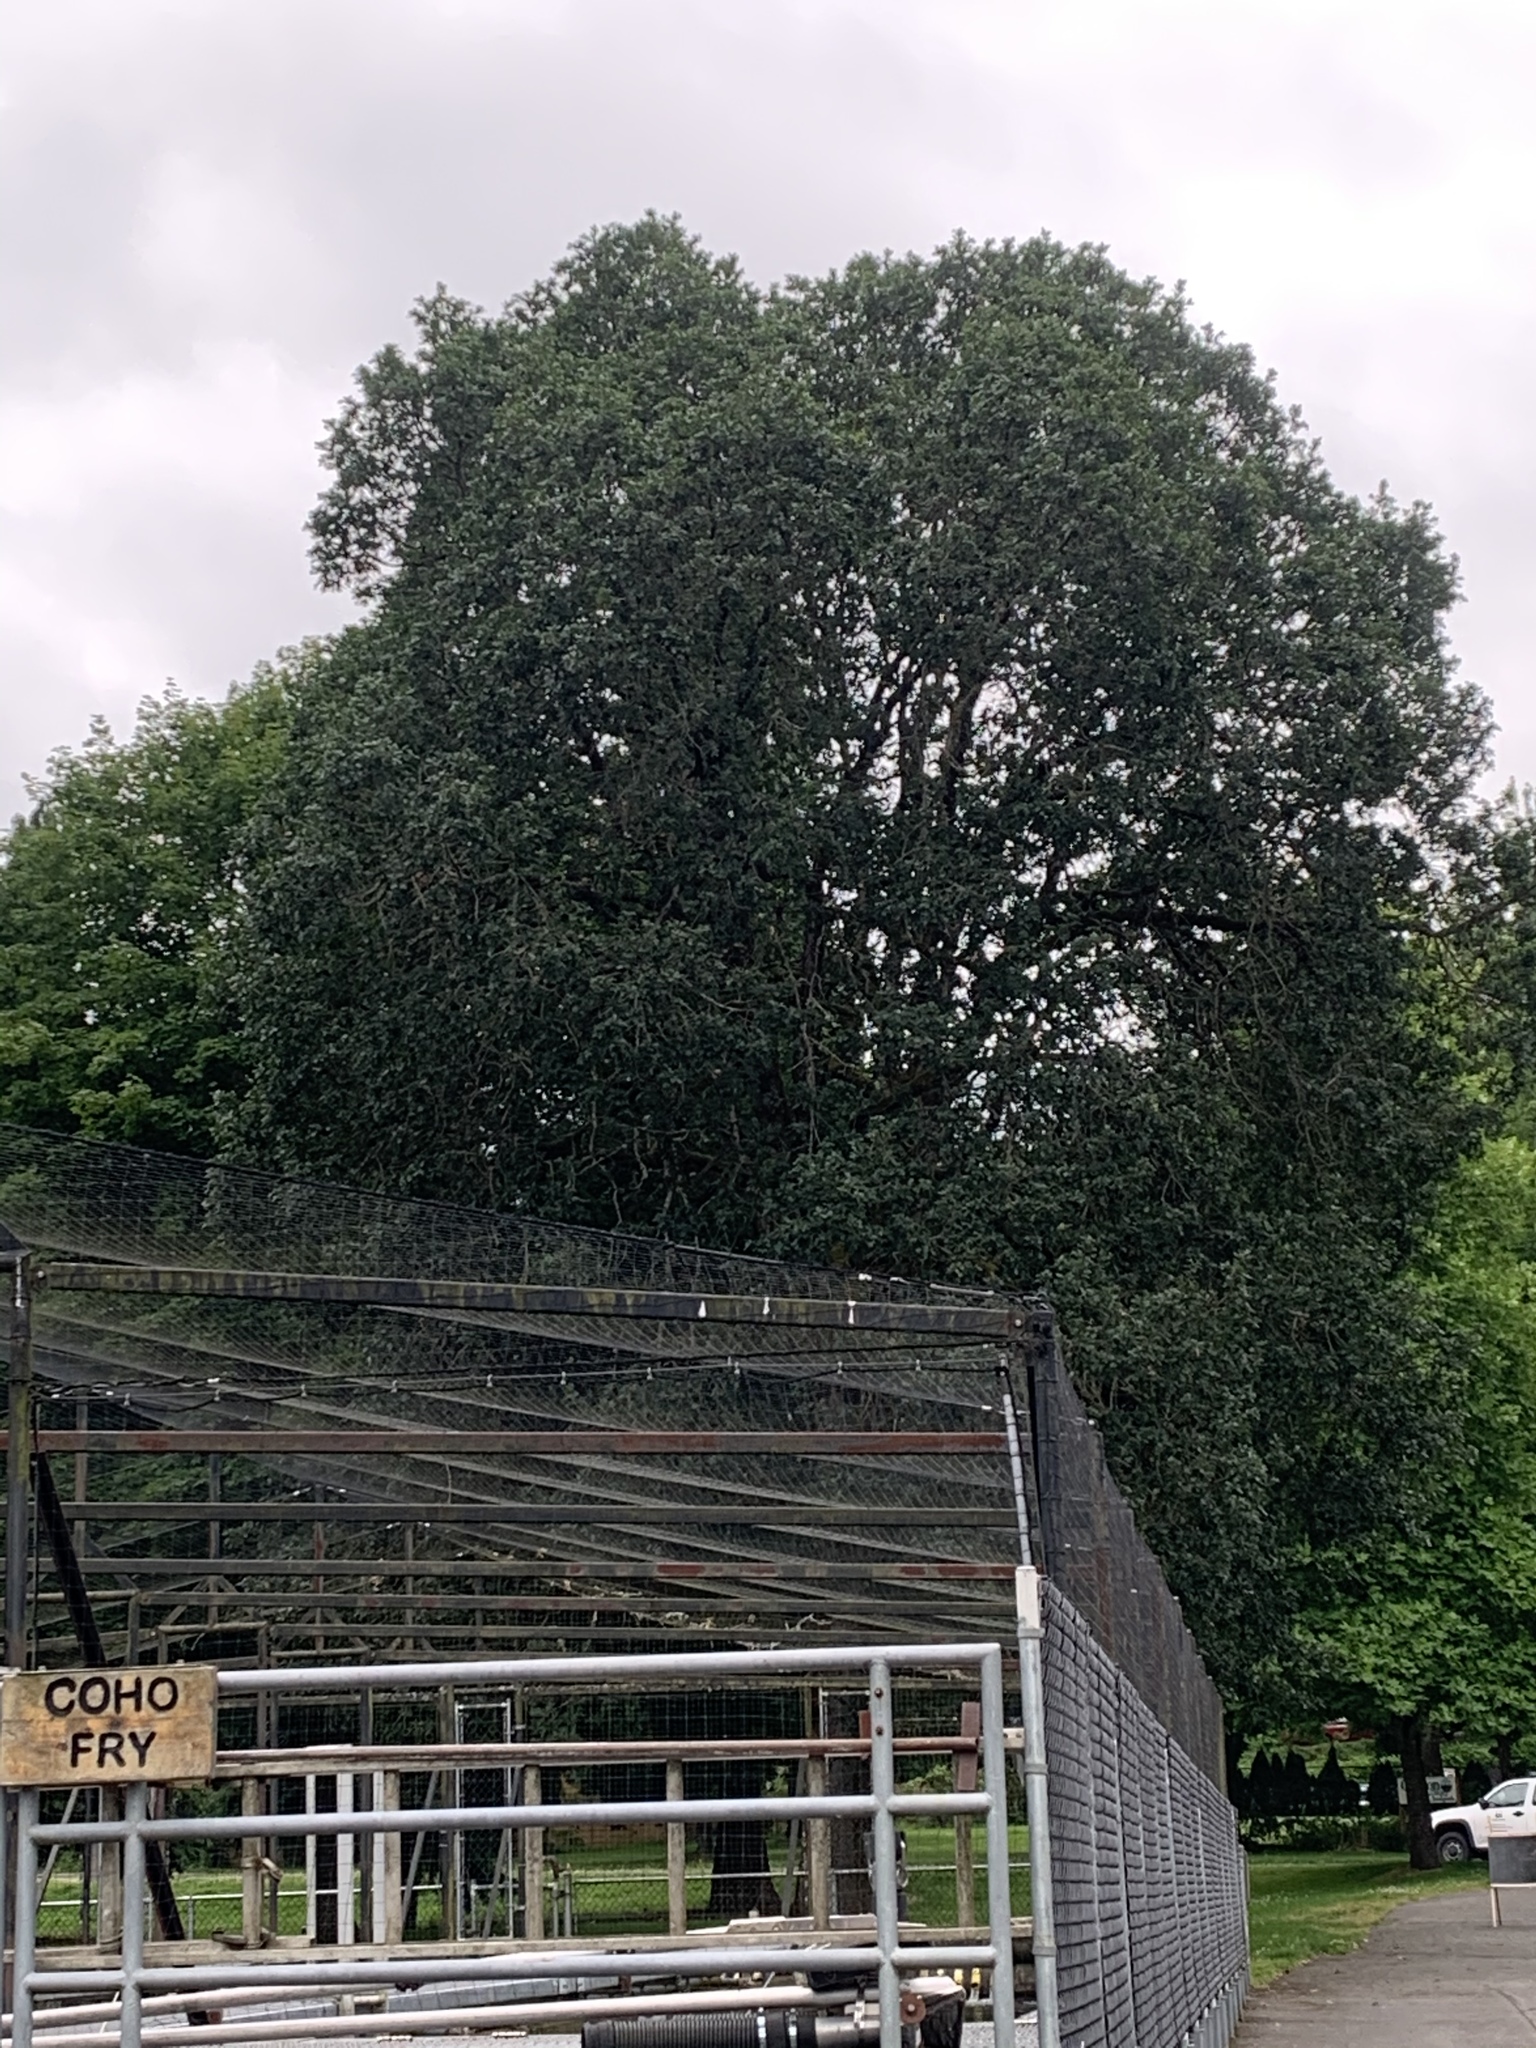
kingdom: Plantae
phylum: Tracheophyta
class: Magnoliopsida
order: Fagales
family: Fagaceae
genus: Quercus
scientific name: Quercus garryana
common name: Garry oak
